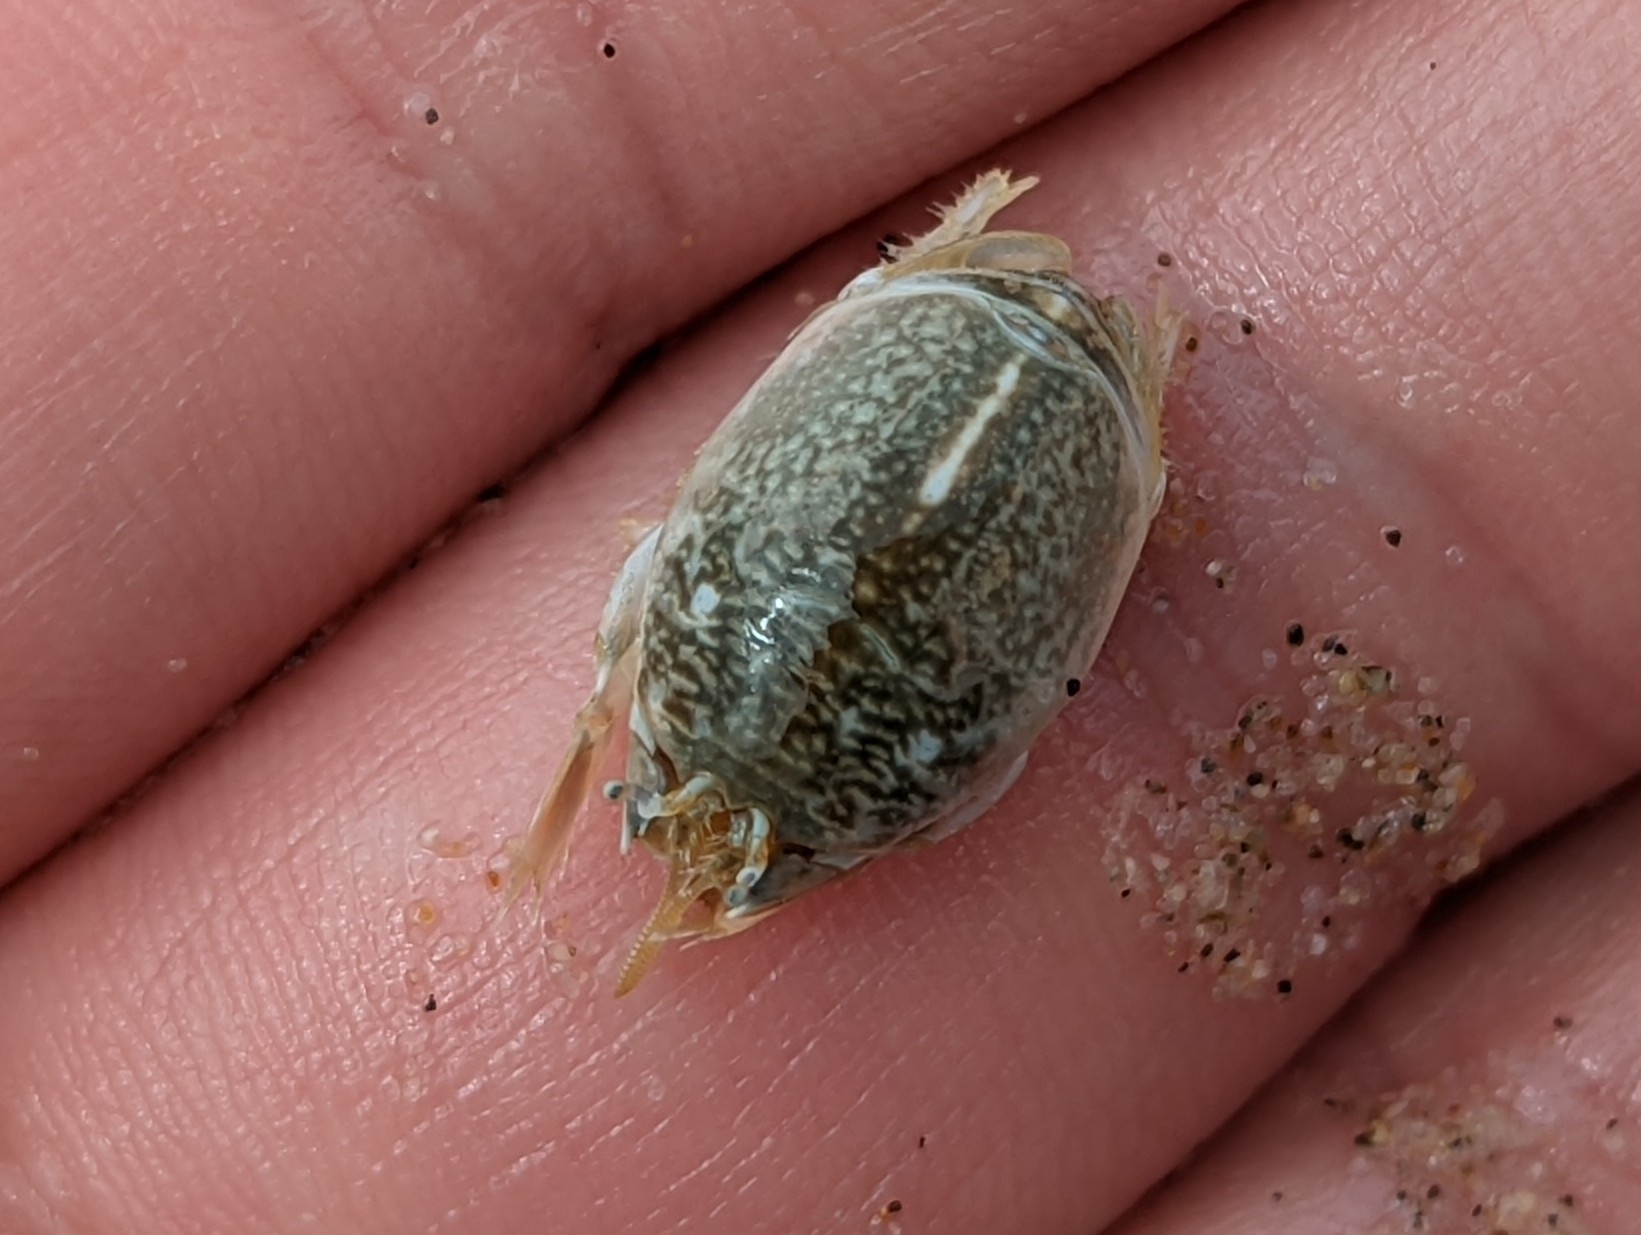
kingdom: Animalia
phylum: Arthropoda
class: Malacostraca
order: Decapoda
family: Hippidae
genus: Emerita
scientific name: Emerita analoga
